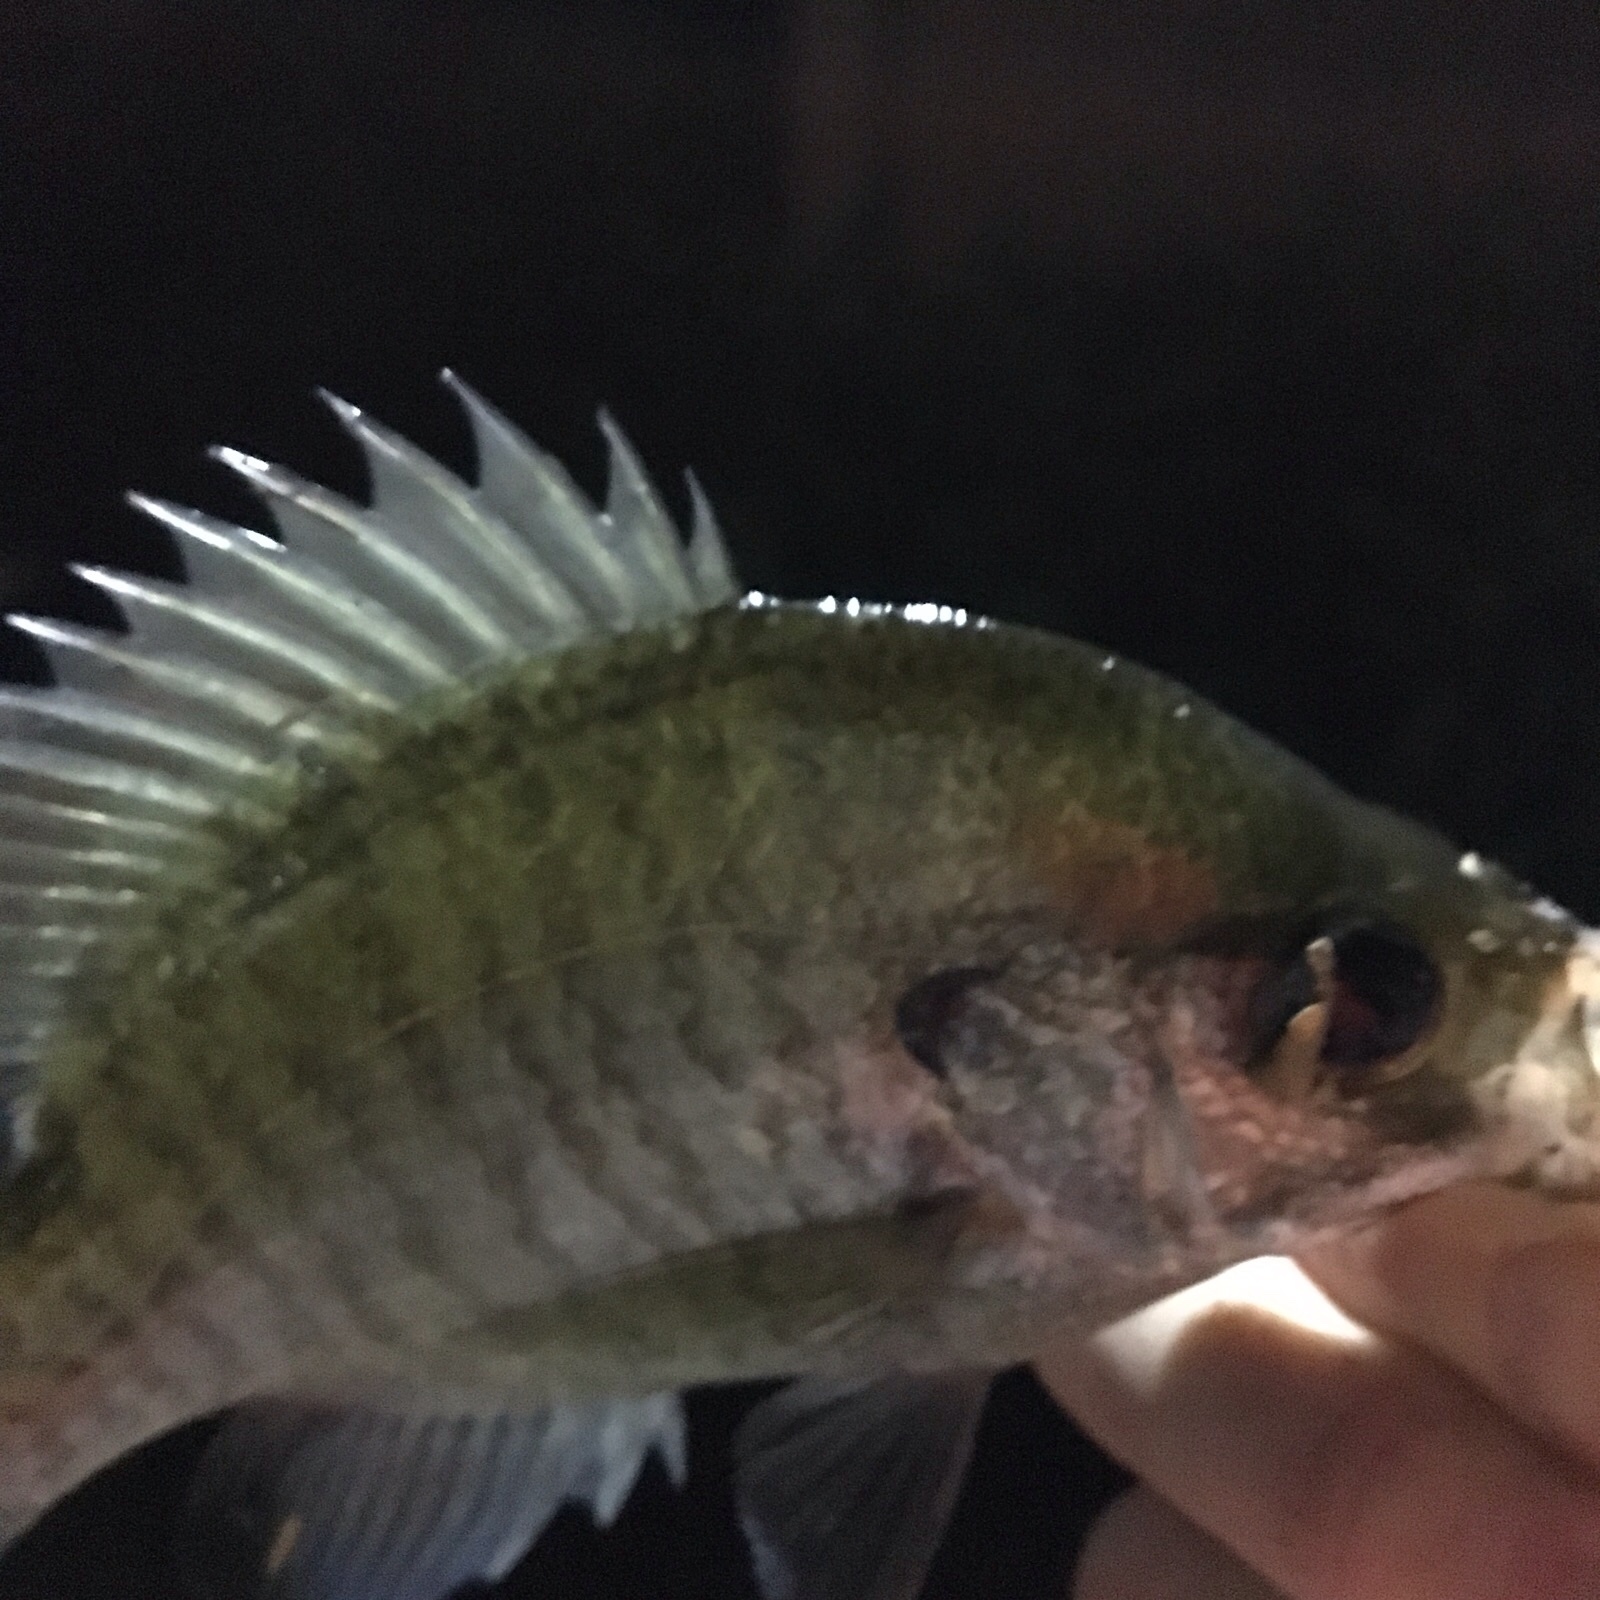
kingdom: Animalia
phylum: Chordata
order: Perciformes
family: Centrarchidae
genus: Lepomis
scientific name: Lepomis macrochirus
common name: Bluegill
